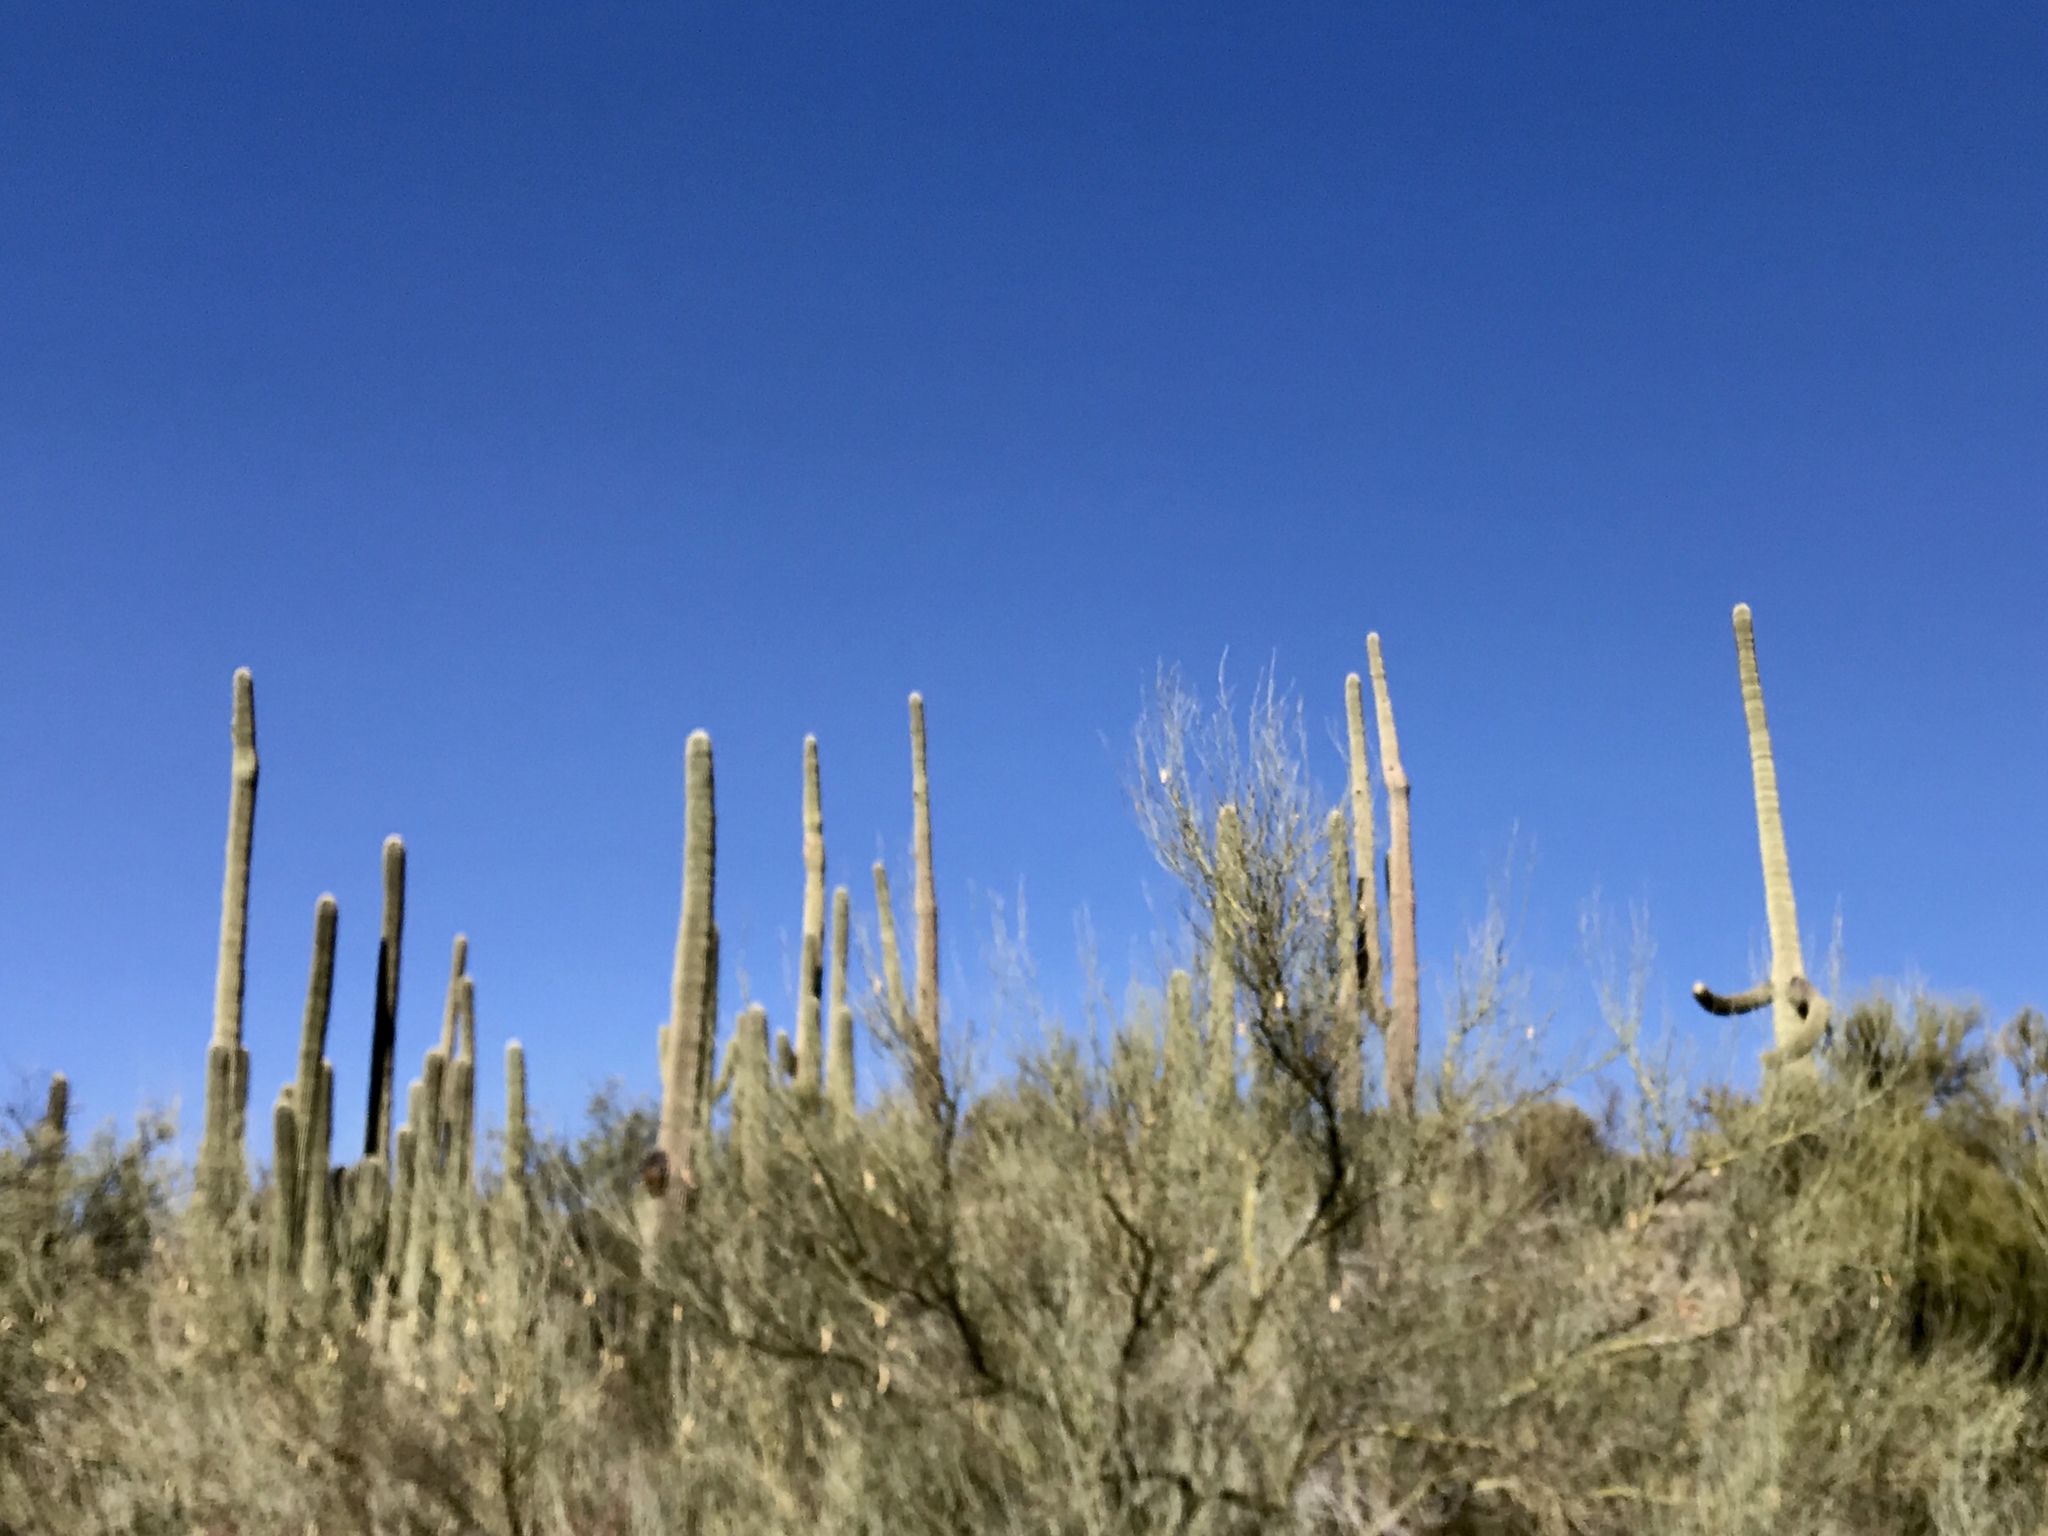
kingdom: Plantae
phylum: Tracheophyta
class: Magnoliopsida
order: Caryophyllales
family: Cactaceae
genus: Carnegiea
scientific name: Carnegiea gigantea
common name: Saguaro
